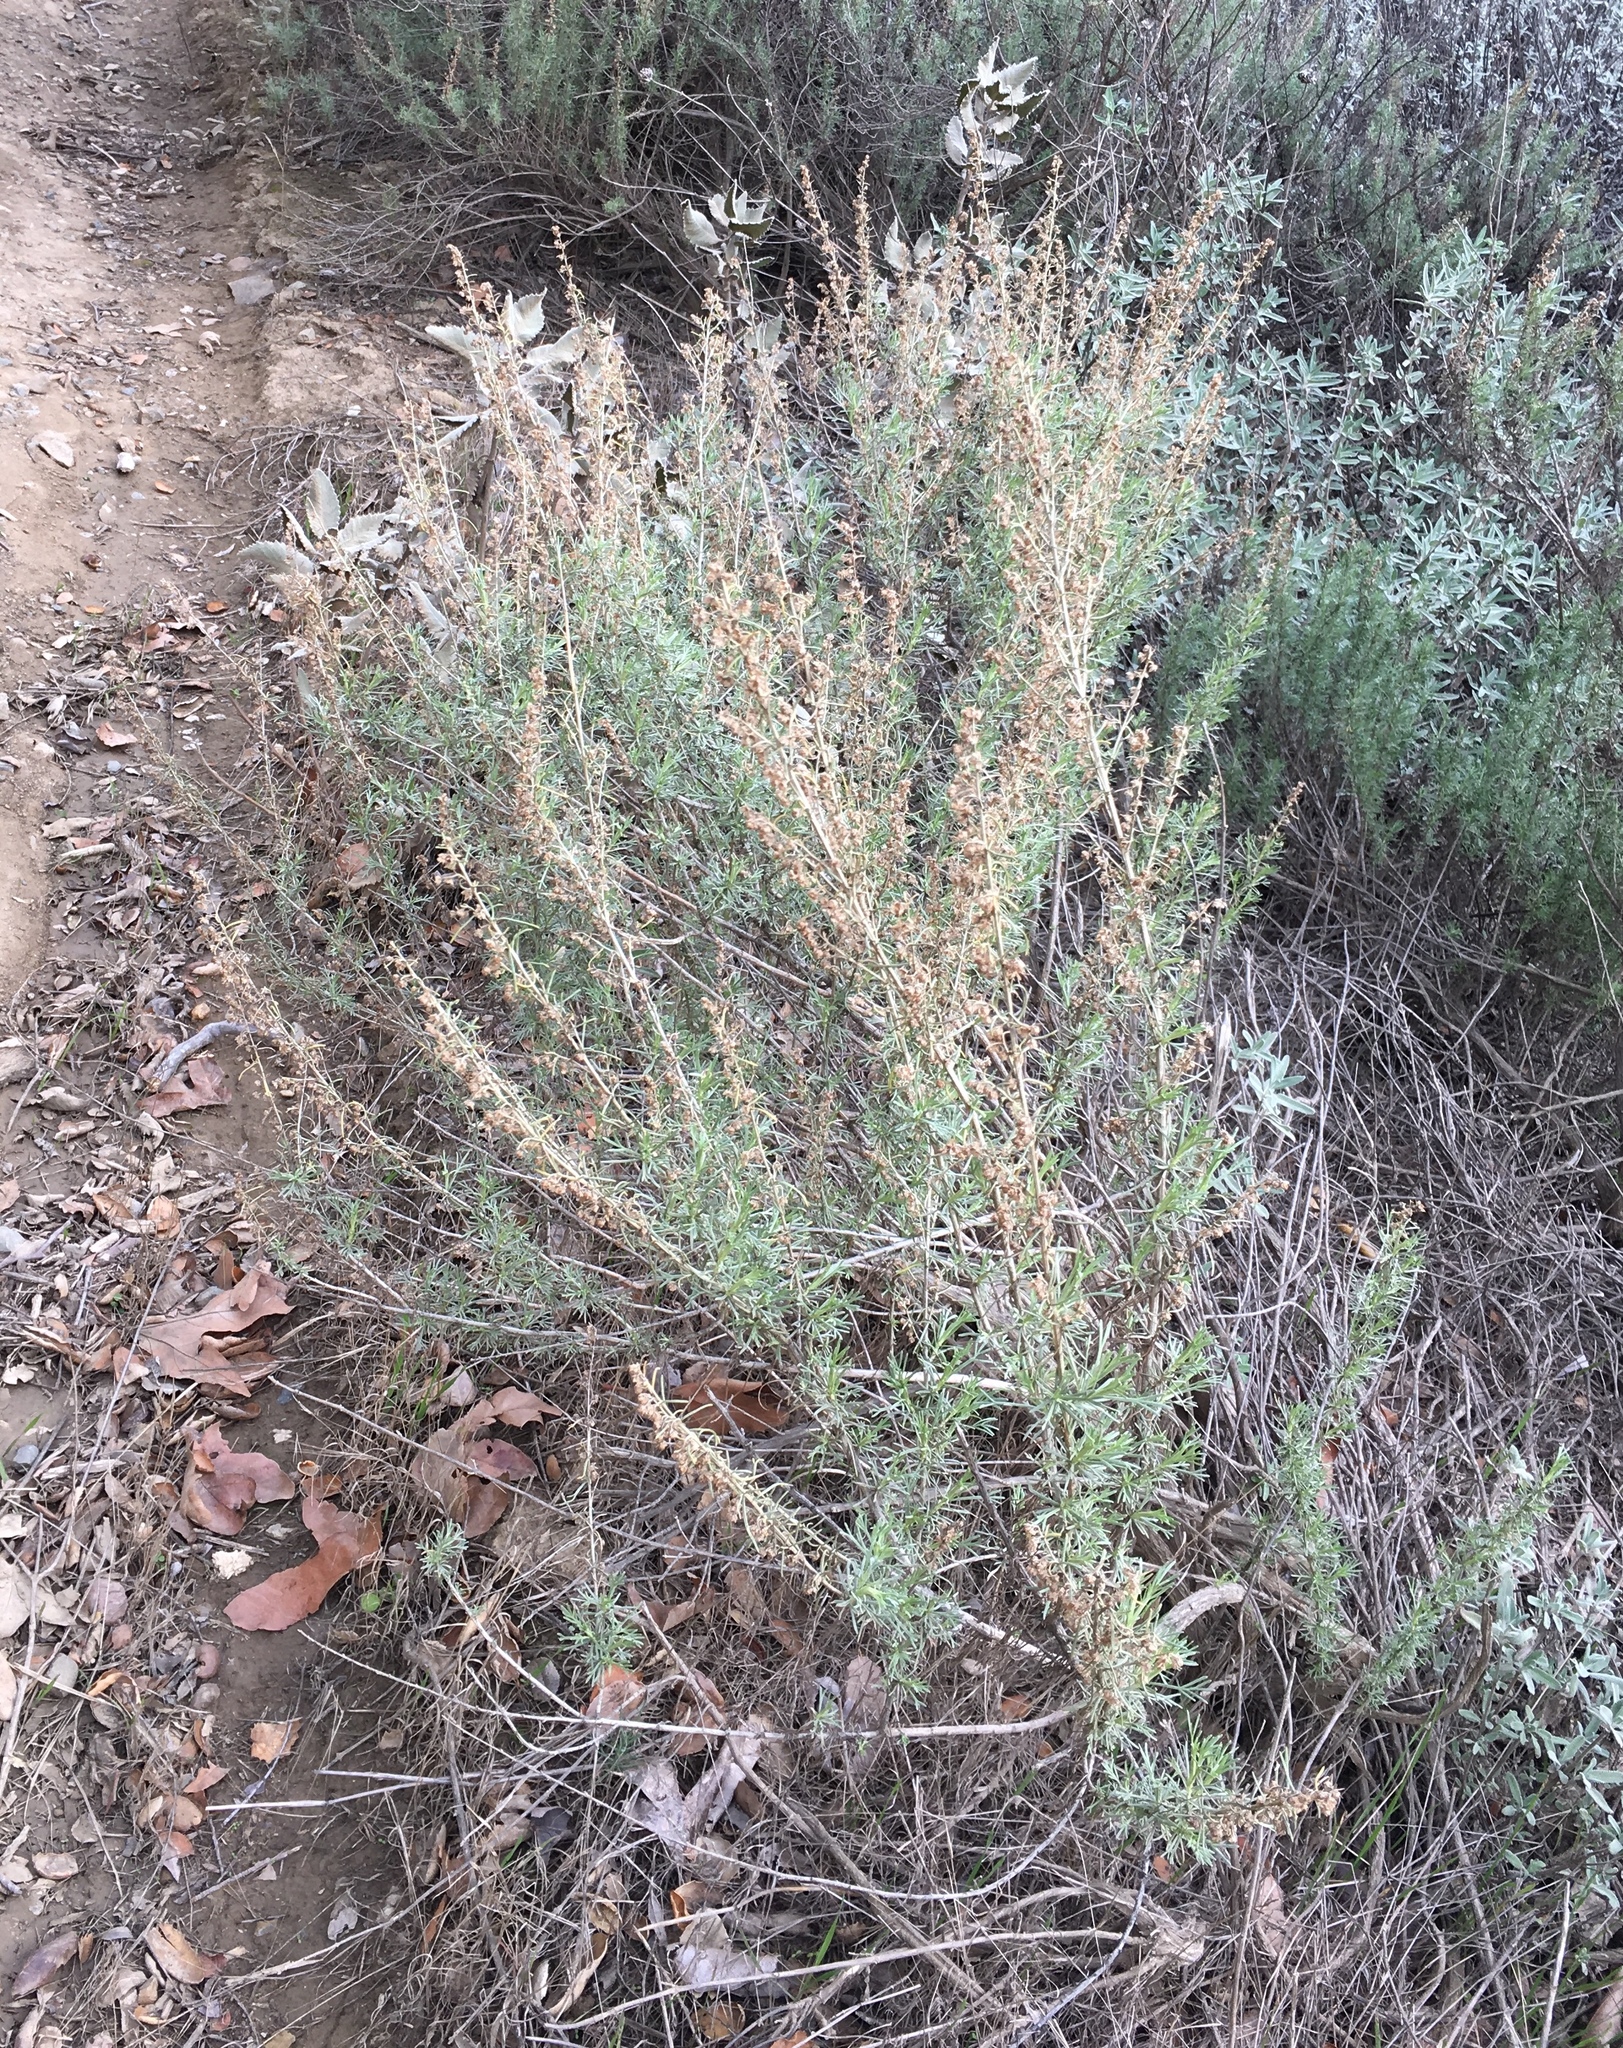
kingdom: Plantae
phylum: Tracheophyta
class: Magnoliopsida
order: Asterales
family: Asteraceae
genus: Artemisia
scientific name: Artemisia californica
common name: California sagebrush
